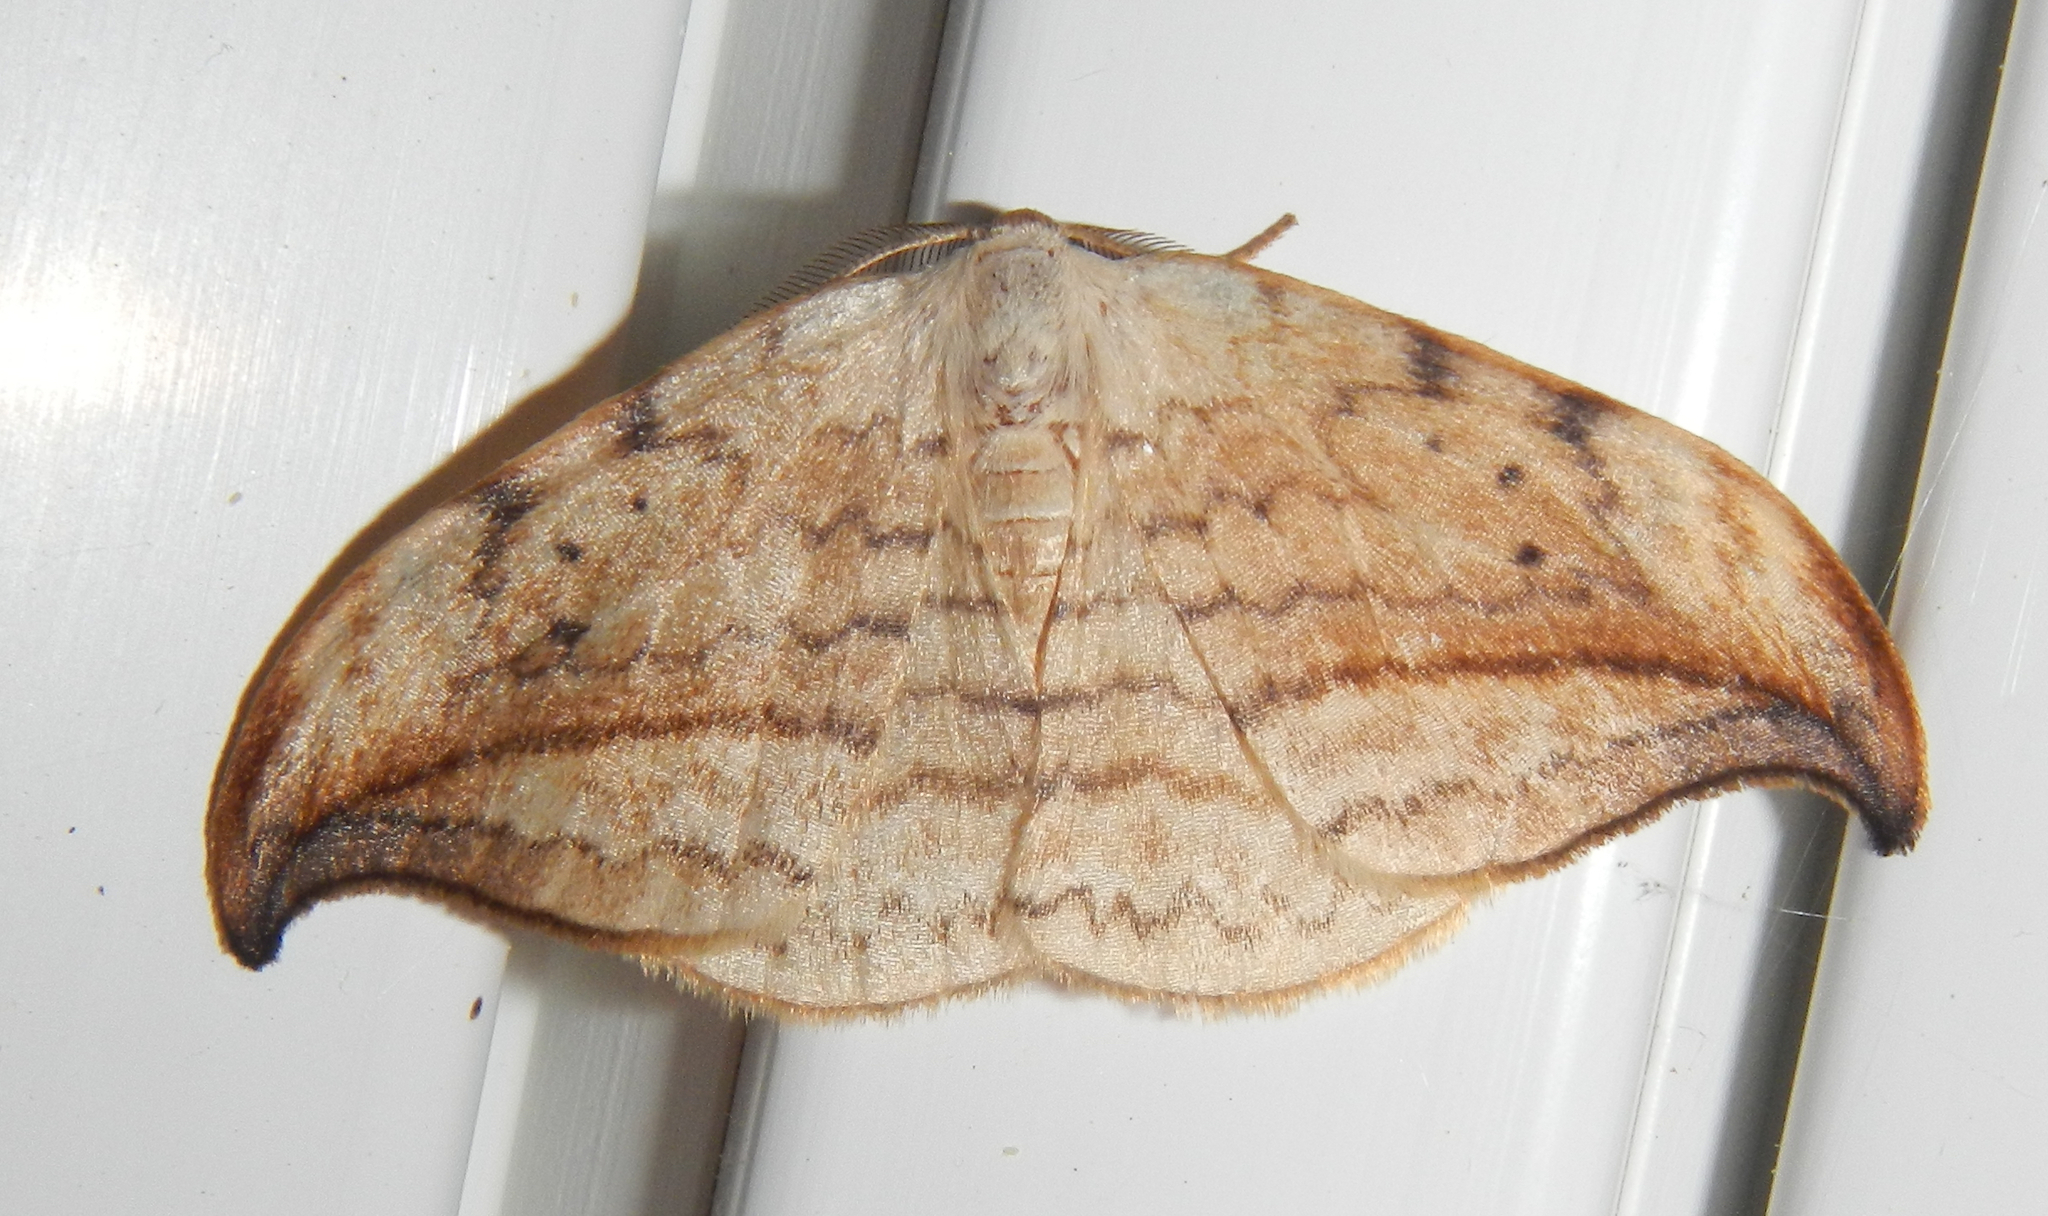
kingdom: Animalia
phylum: Arthropoda
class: Insecta
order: Lepidoptera
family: Drepanidae
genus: Drepana
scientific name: Drepana arcuata
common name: Arched hooktip moth
